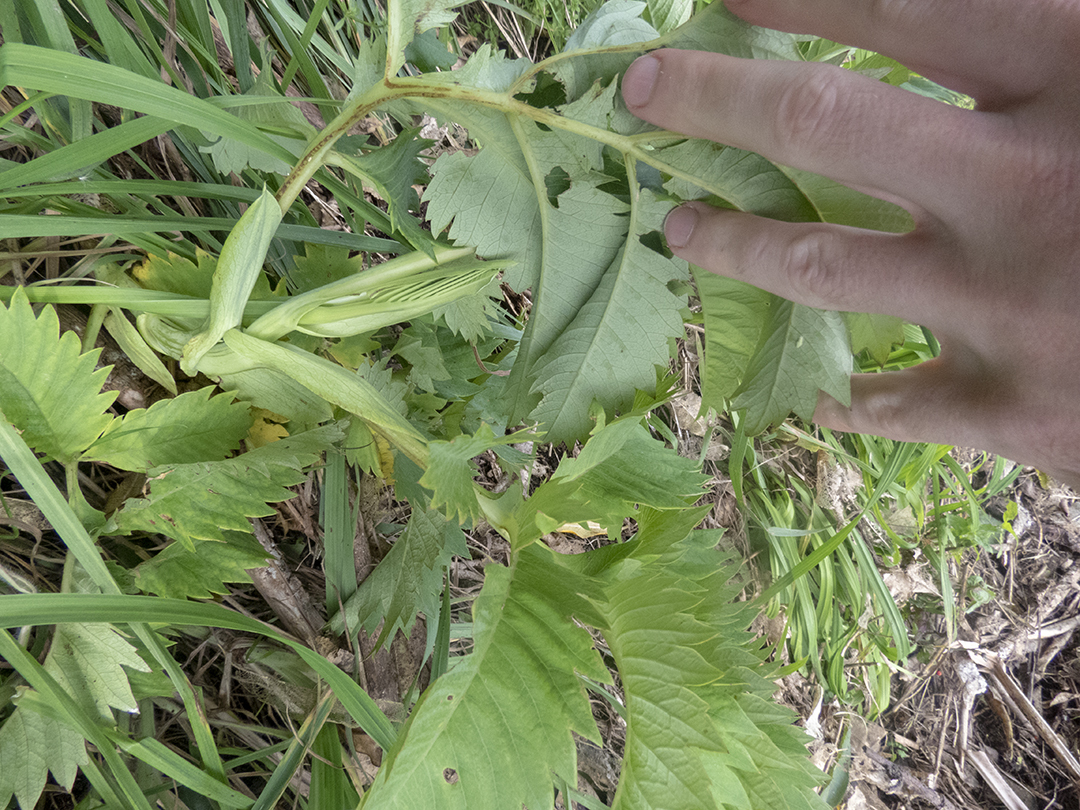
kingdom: Plantae
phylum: Tracheophyta
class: Magnoliopsida
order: Geraniales
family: Melianthaceae
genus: Melianthus
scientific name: Melianthus major
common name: Honey-flower
